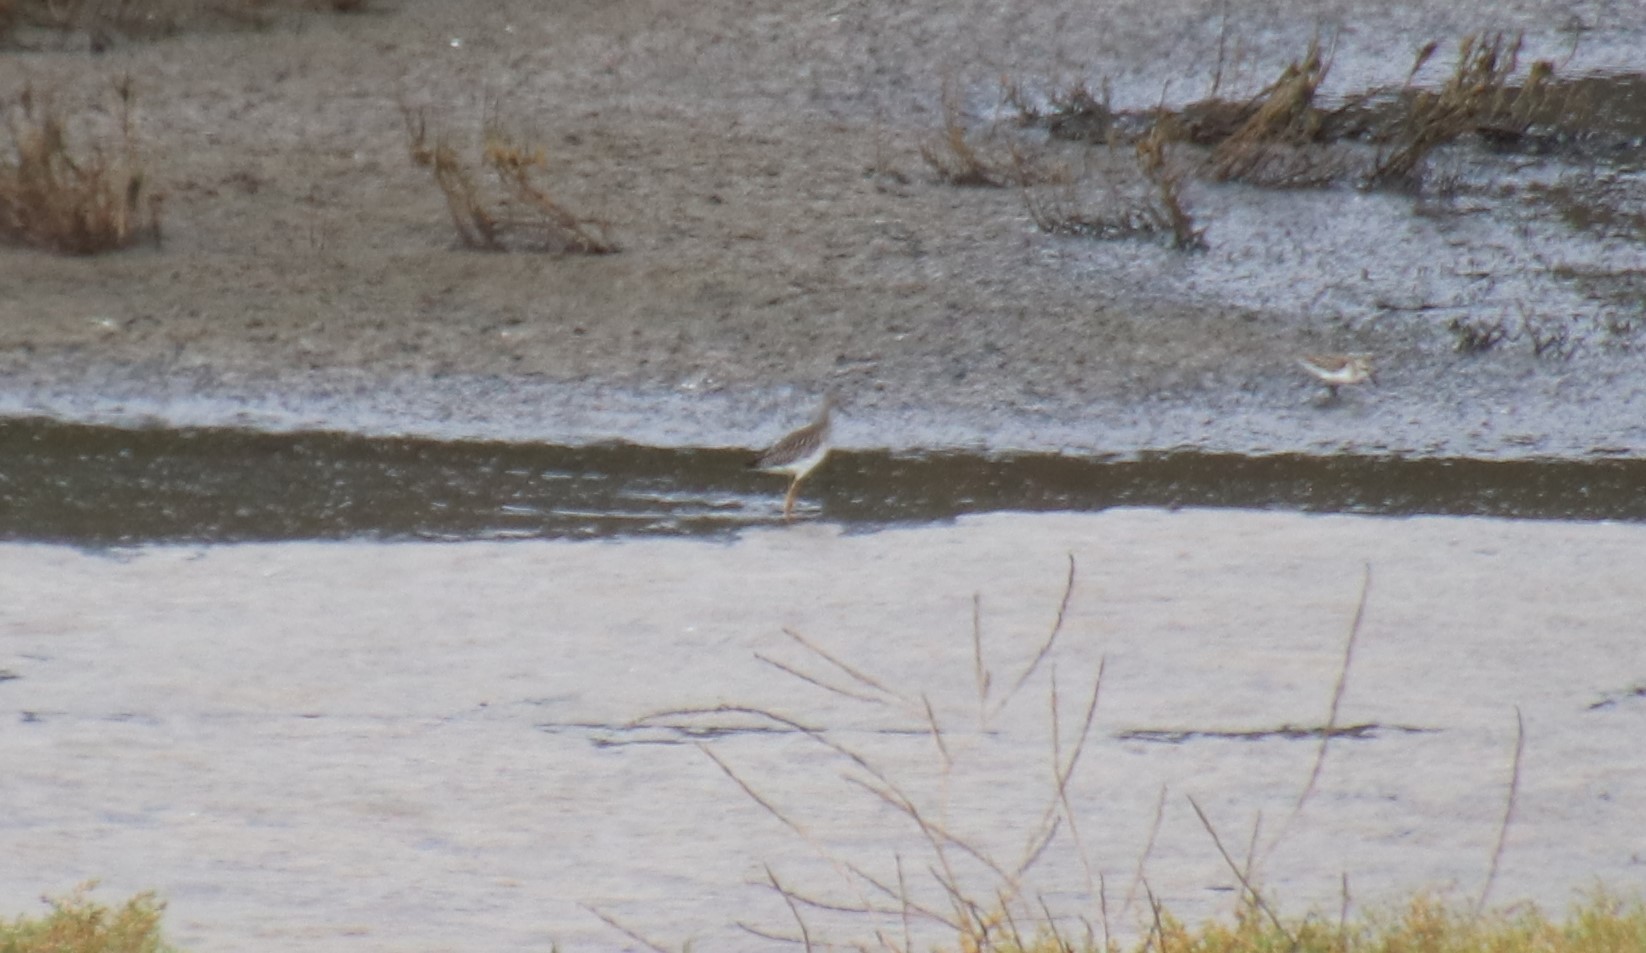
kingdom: Animalia
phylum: Chordata
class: Aves
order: Charadriiformes
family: Scolopacidae
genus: Tringa
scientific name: Tringa flavipes
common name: Lesser yellowlegs
